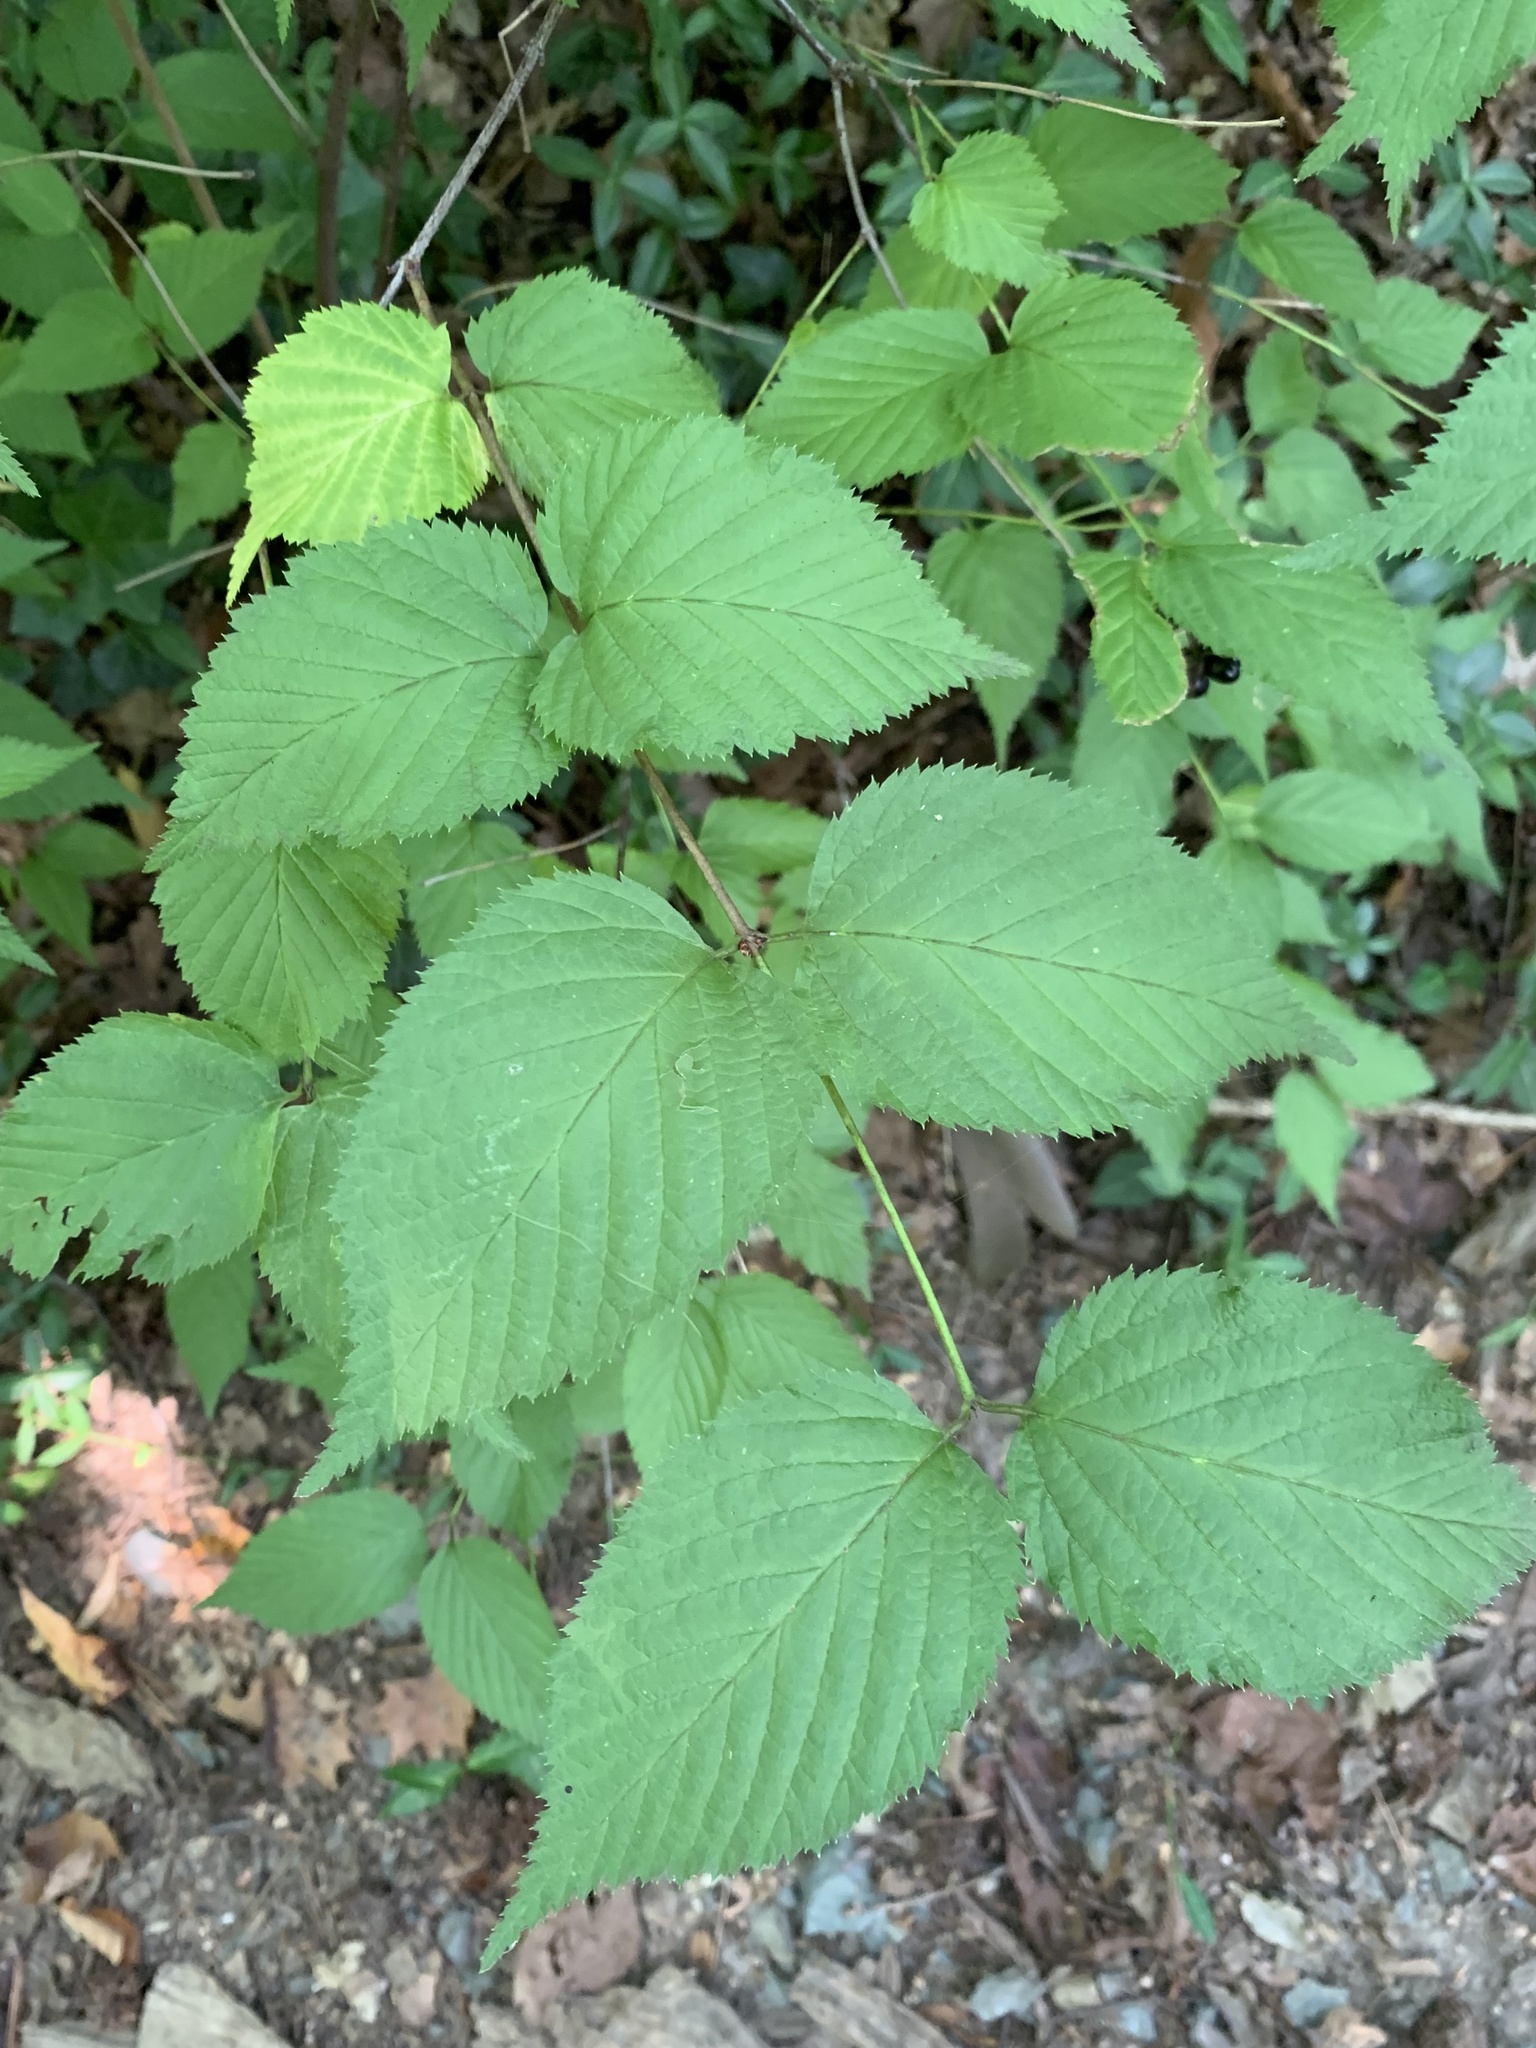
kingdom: Plantae
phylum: Tracheophyta
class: Magnoliopsida
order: Rosales
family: Rosaceae
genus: Rhodotypos
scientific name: Rhodotypos scandens
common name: Jetbead
